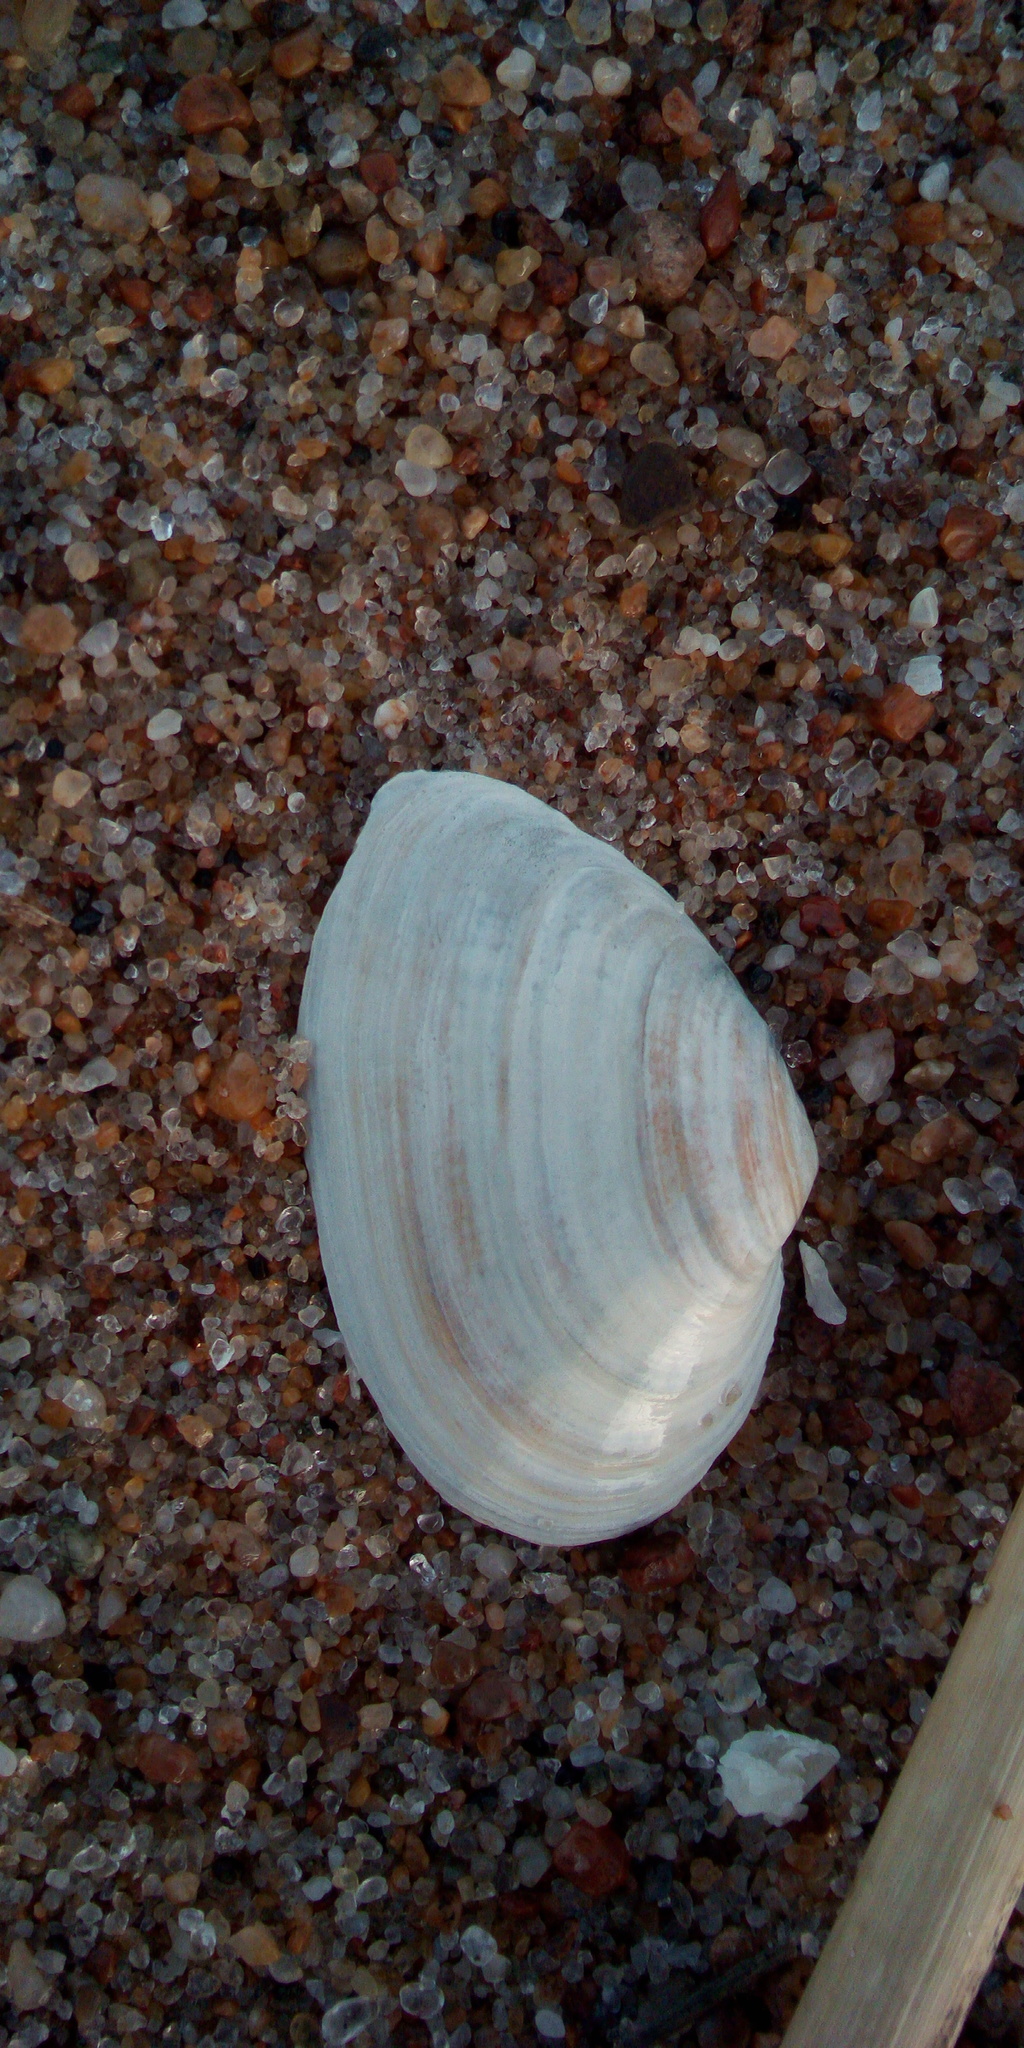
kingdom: Animalia
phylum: Mollusca
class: Bivalvia
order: Myida
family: Myidae
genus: Mya
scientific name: Mya arenaria
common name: Soft-shelled clam
